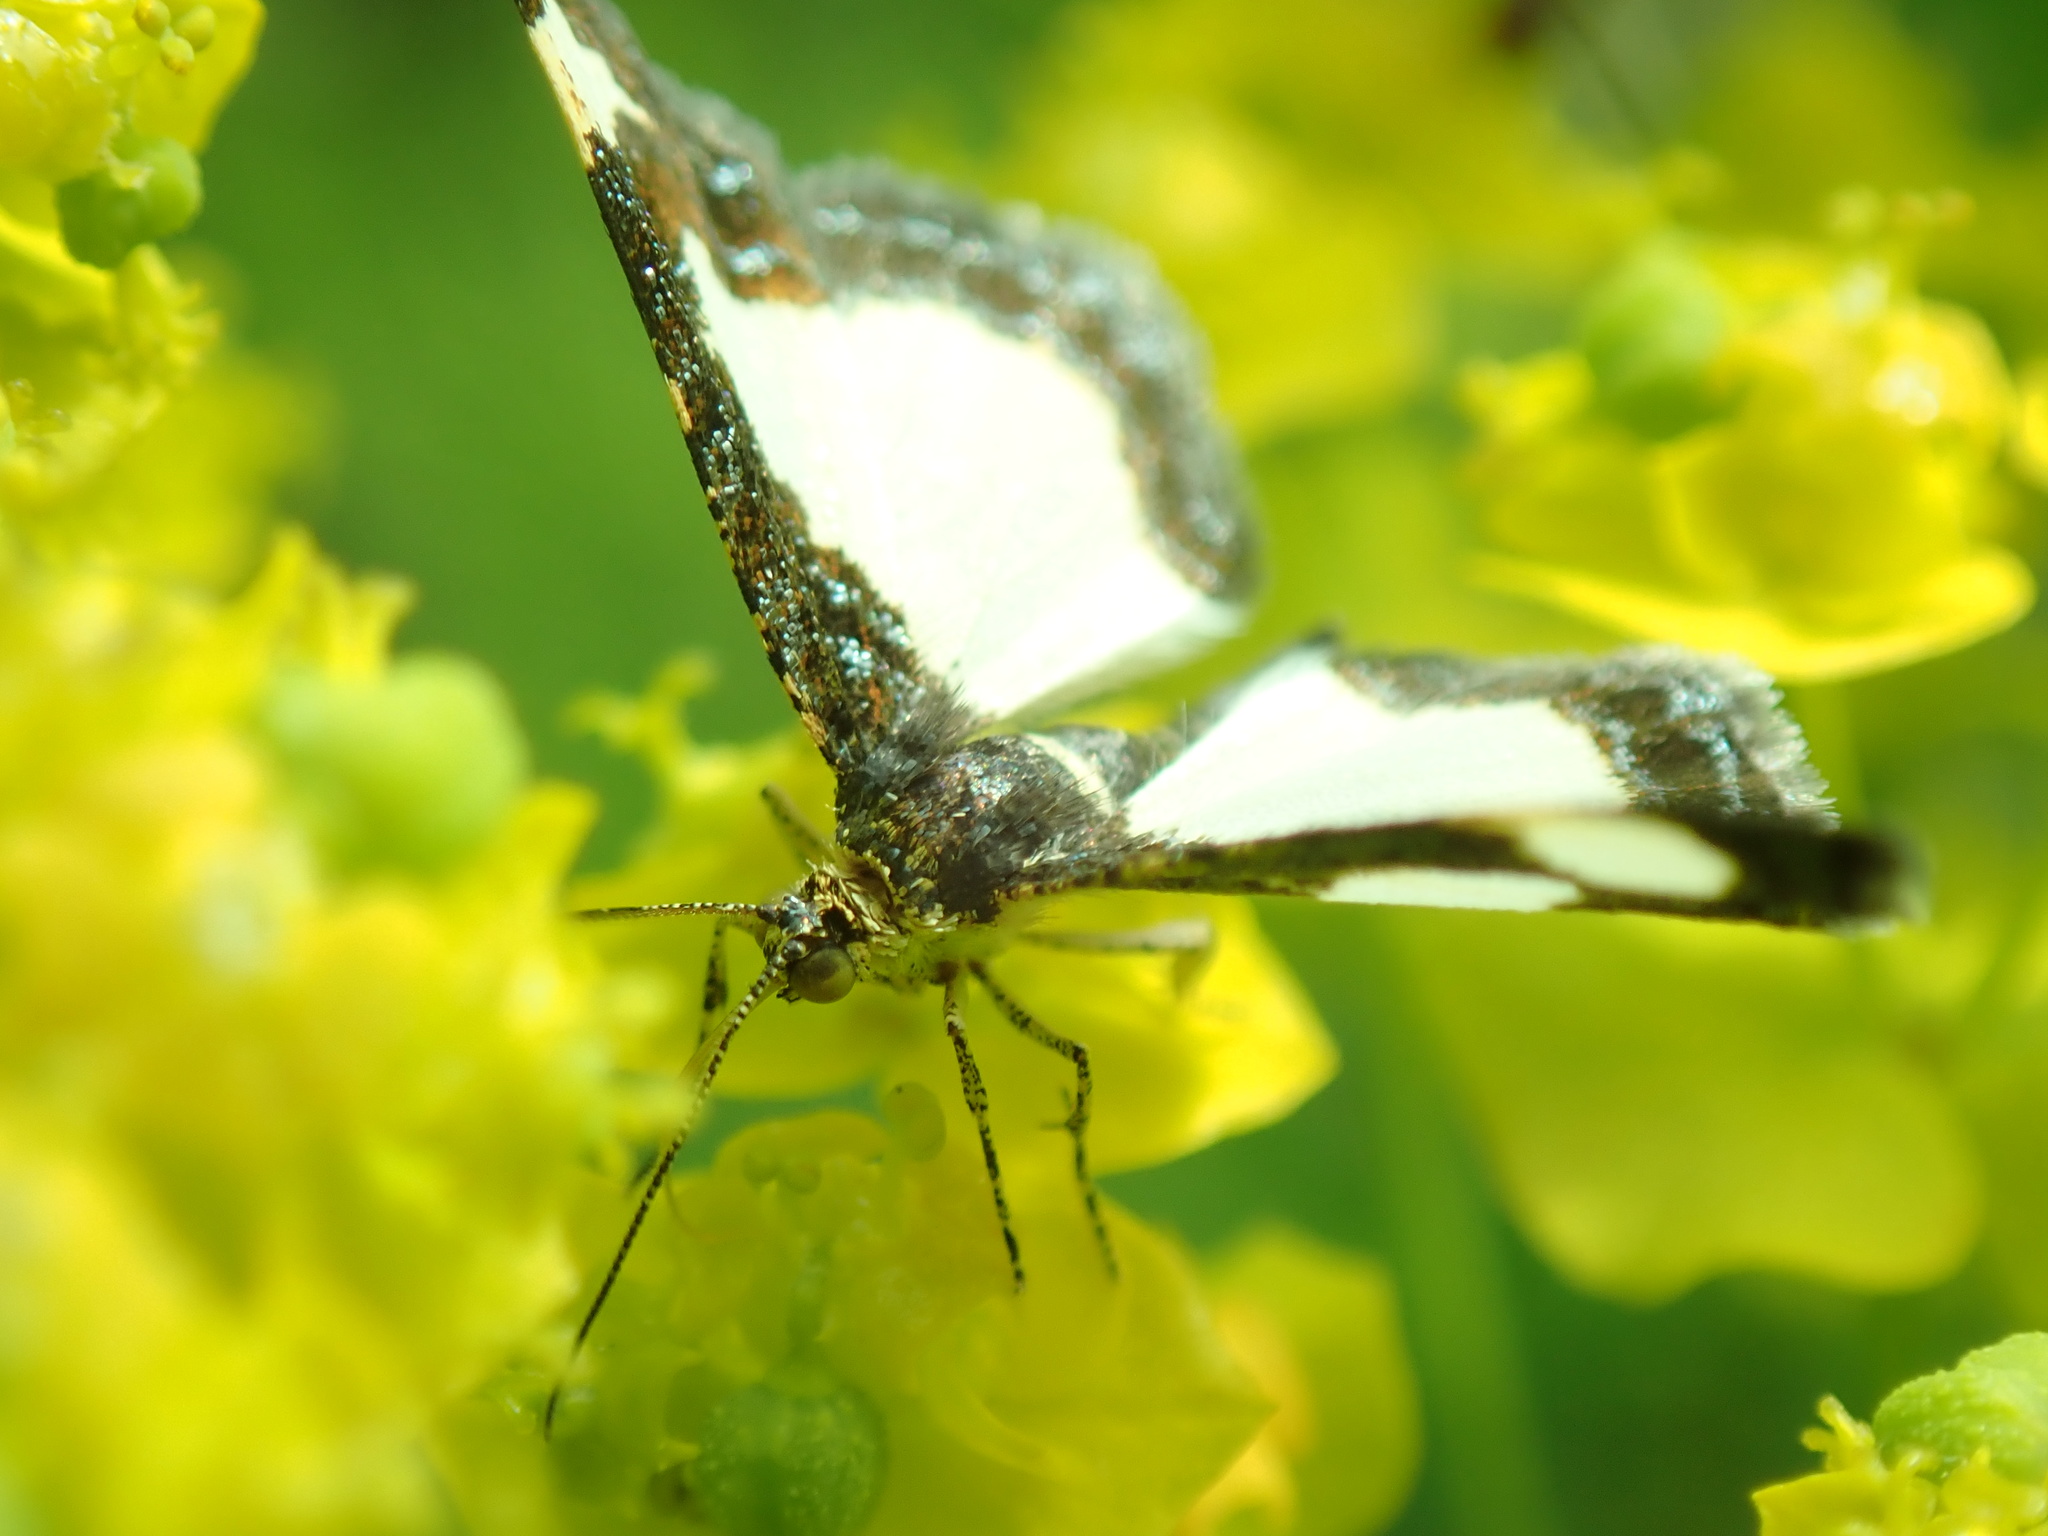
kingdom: Animalia
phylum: Arthropoda
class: Insecta
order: Lepidoptera
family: Geometridae
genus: Heliomata
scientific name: Heliomata cycladata
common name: Common spring moth
